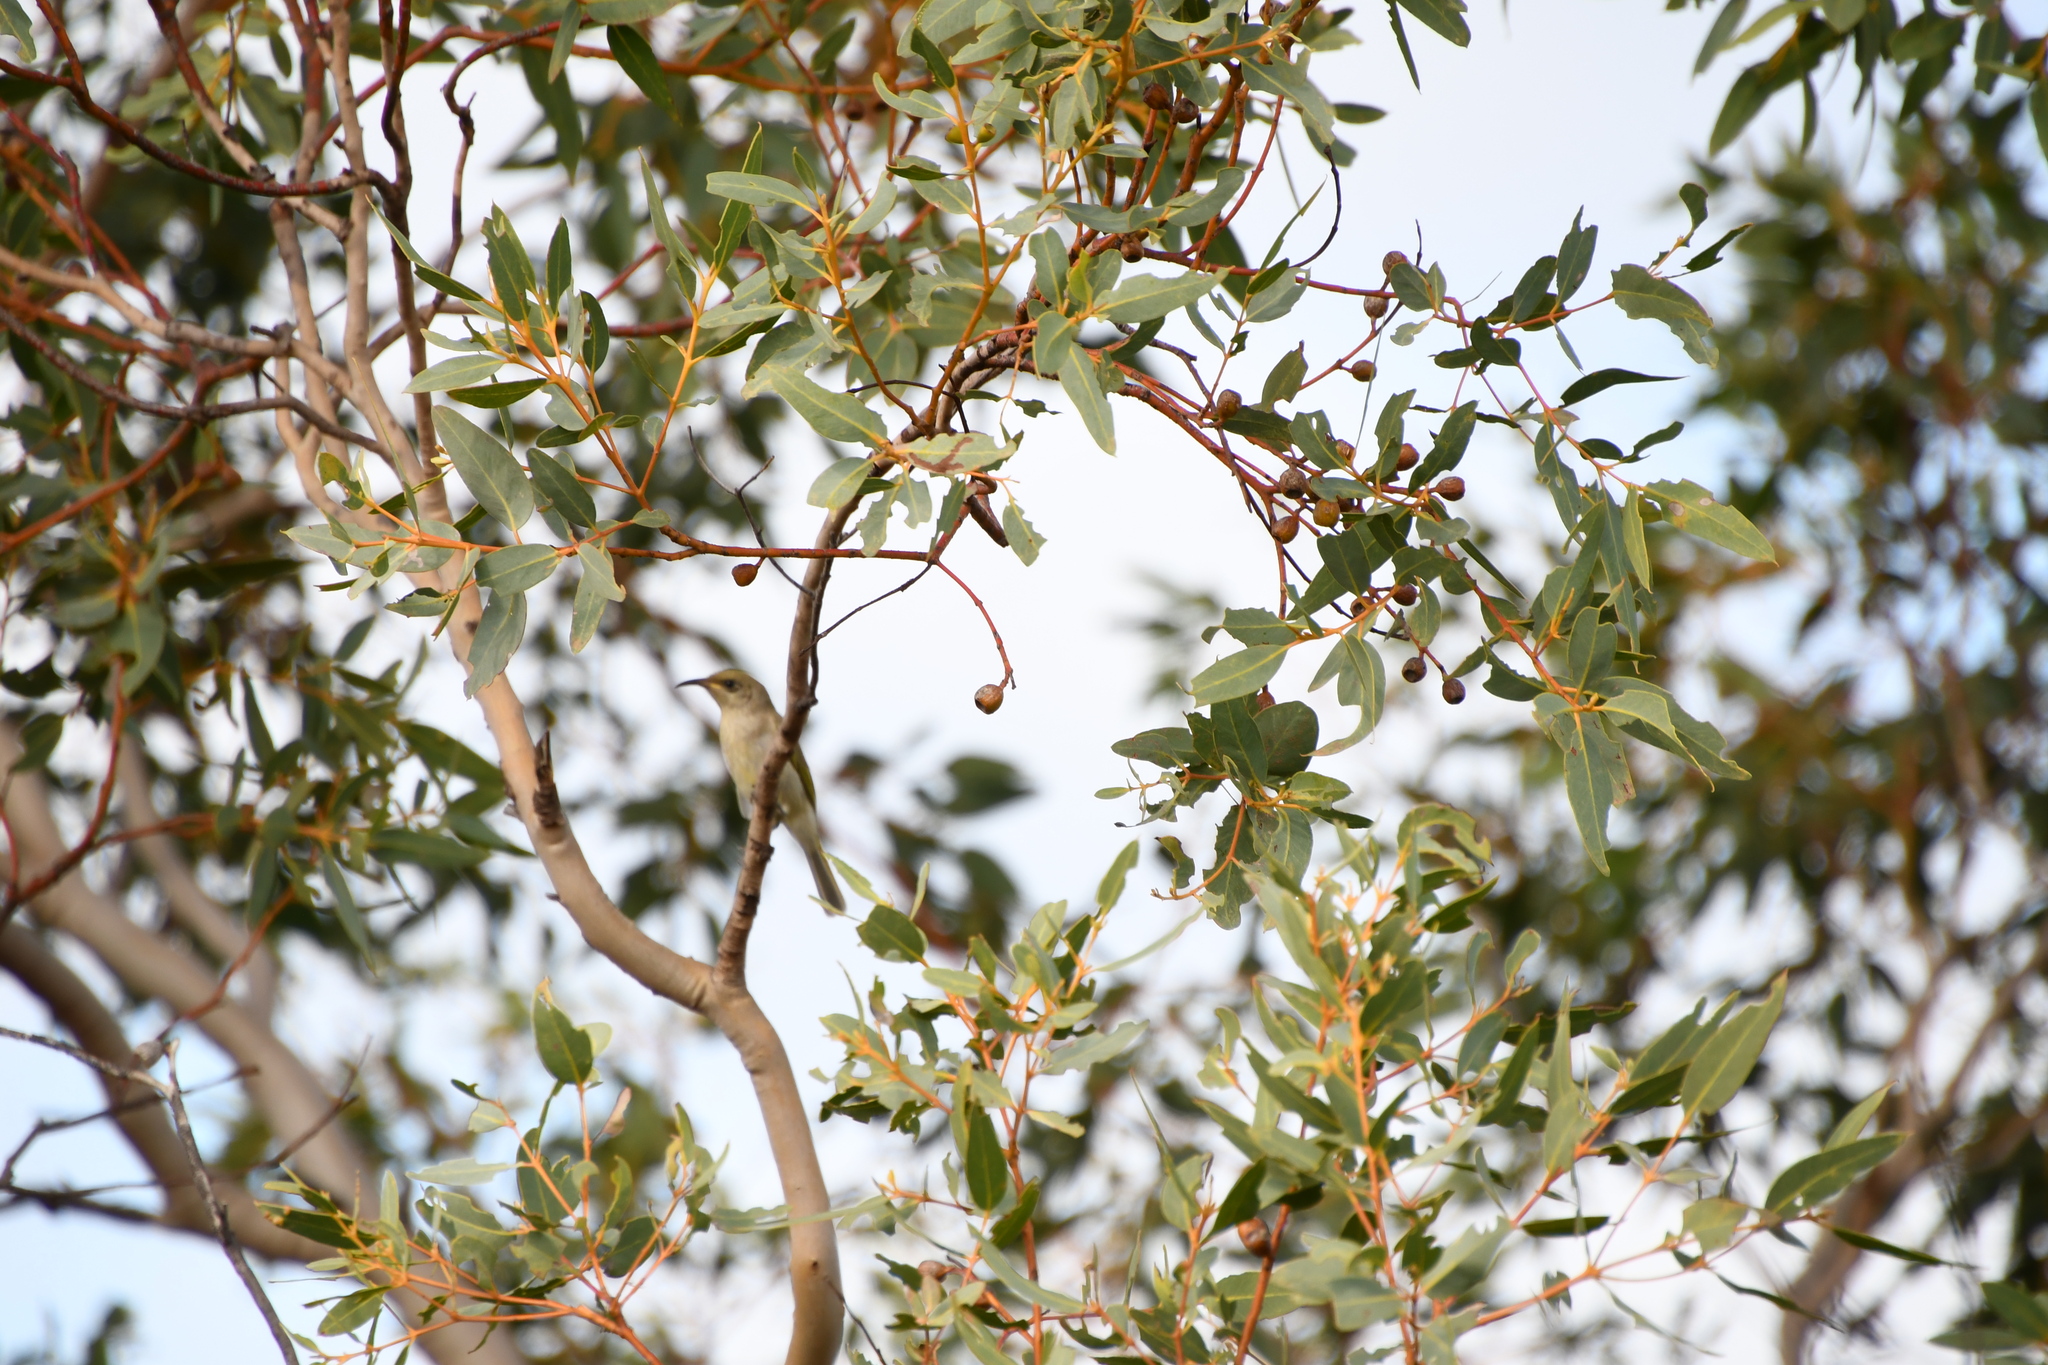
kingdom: Animalia
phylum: Chordata
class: Aves
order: Passeriformes
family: Meliphagidae
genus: Lichmera
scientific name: Lichmera indistincta
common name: Brown honeyeater
